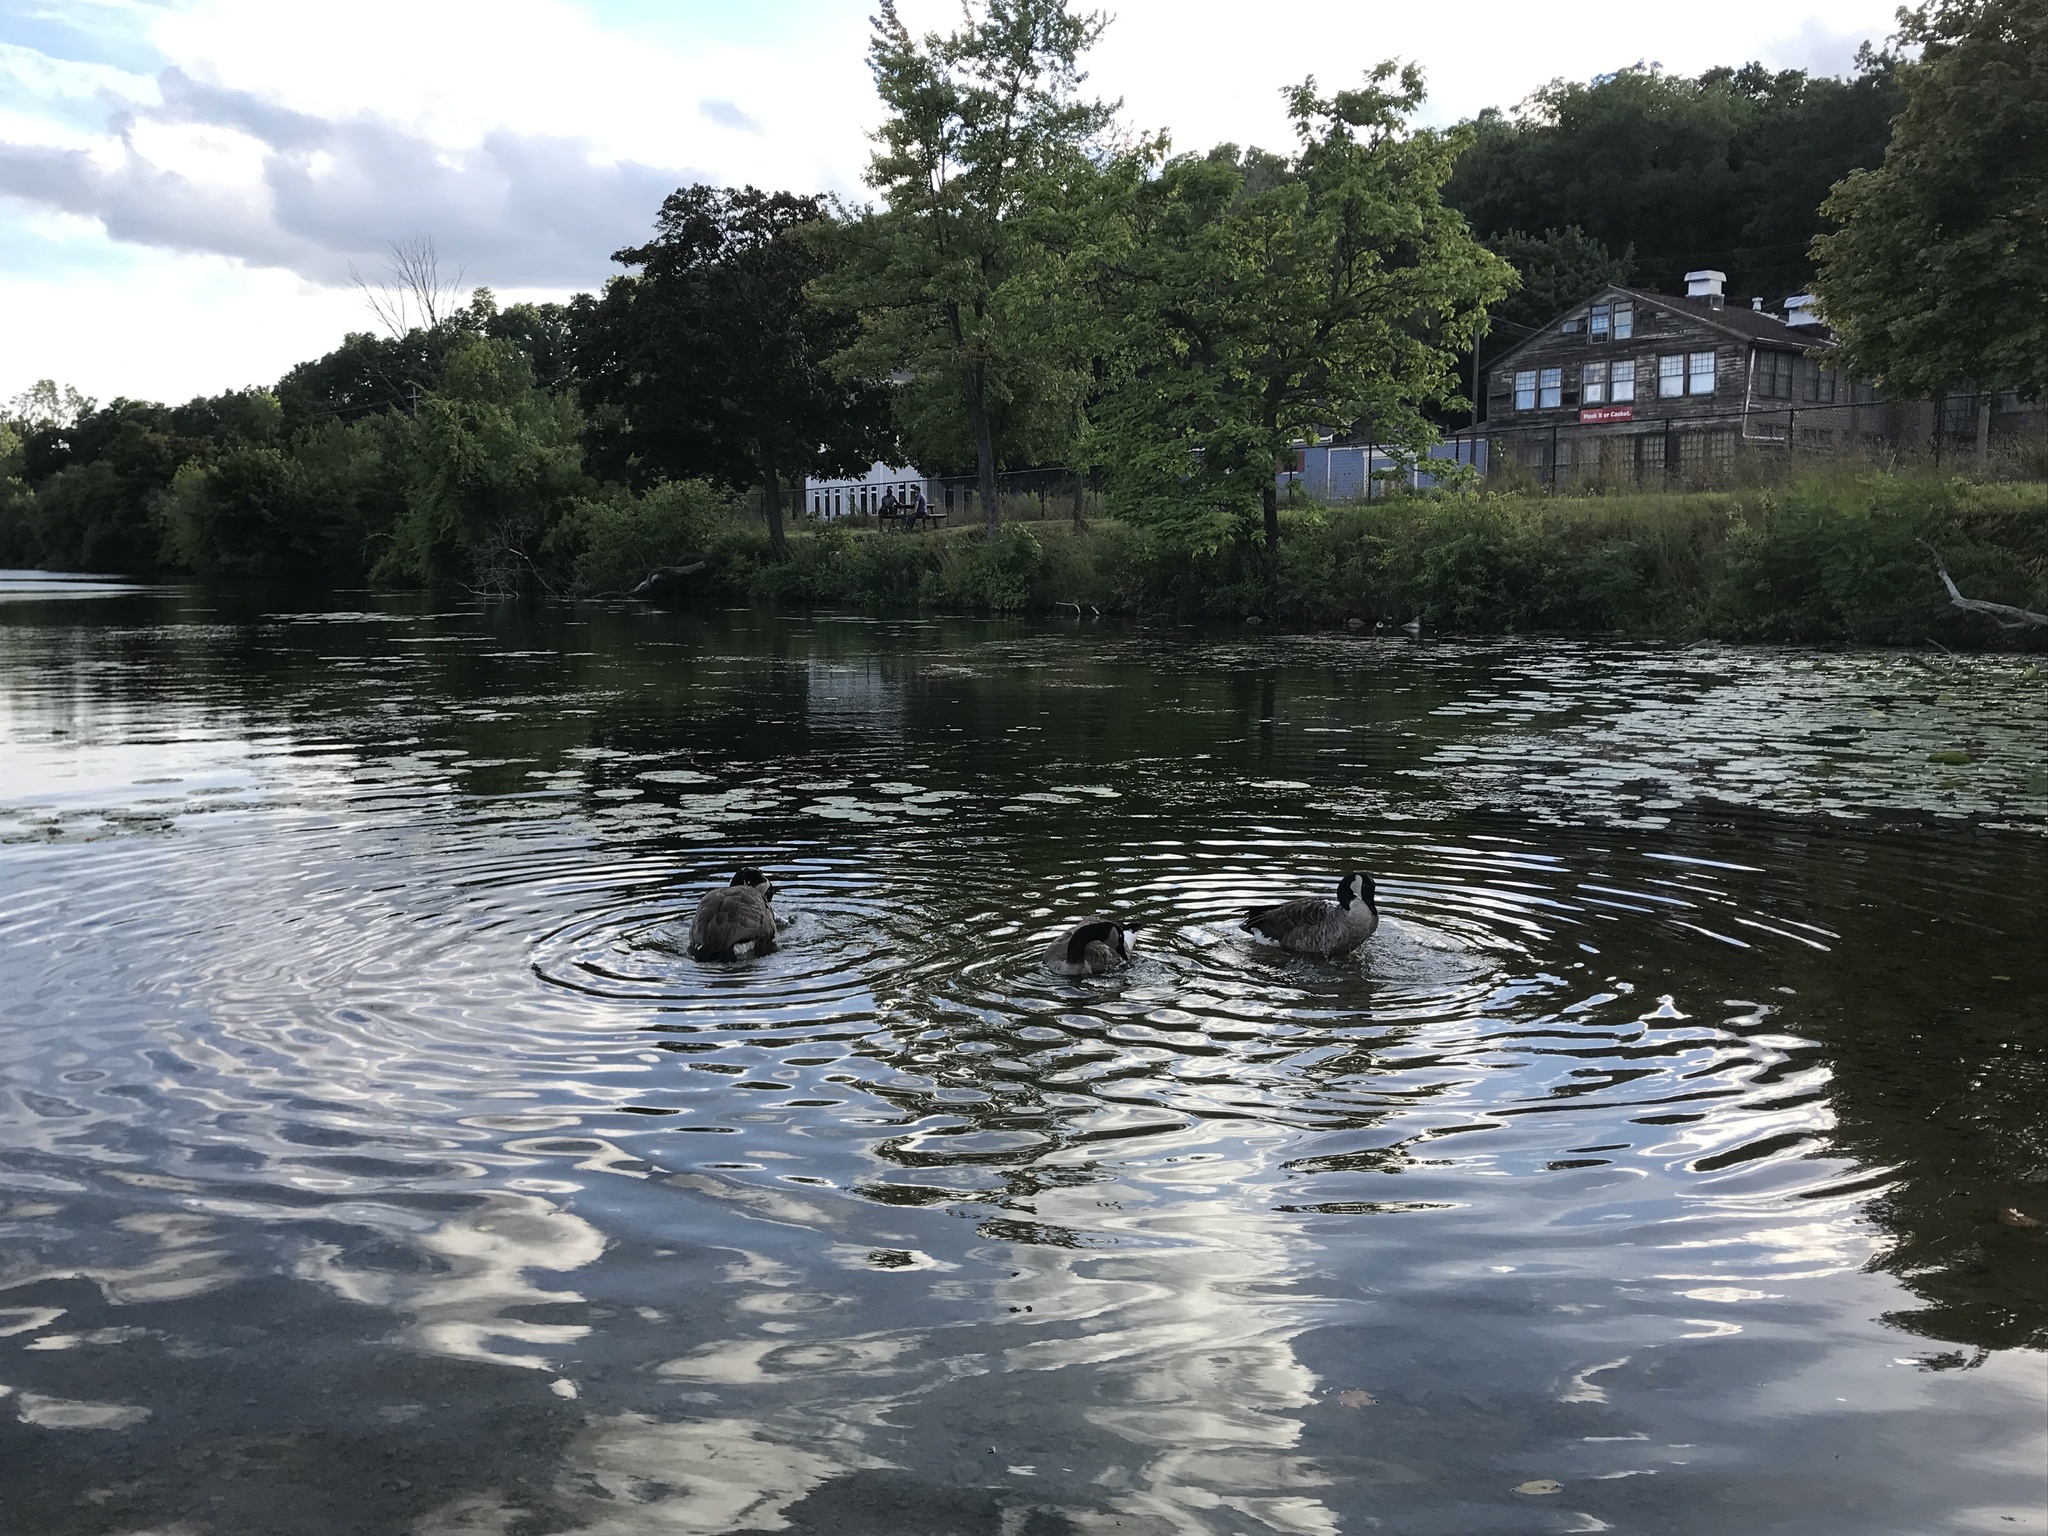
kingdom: Animalia
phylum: Chordata
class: Aves
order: Anseriformes
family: Anatidae
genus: Branta
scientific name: Branta canadensis
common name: Canada goose
